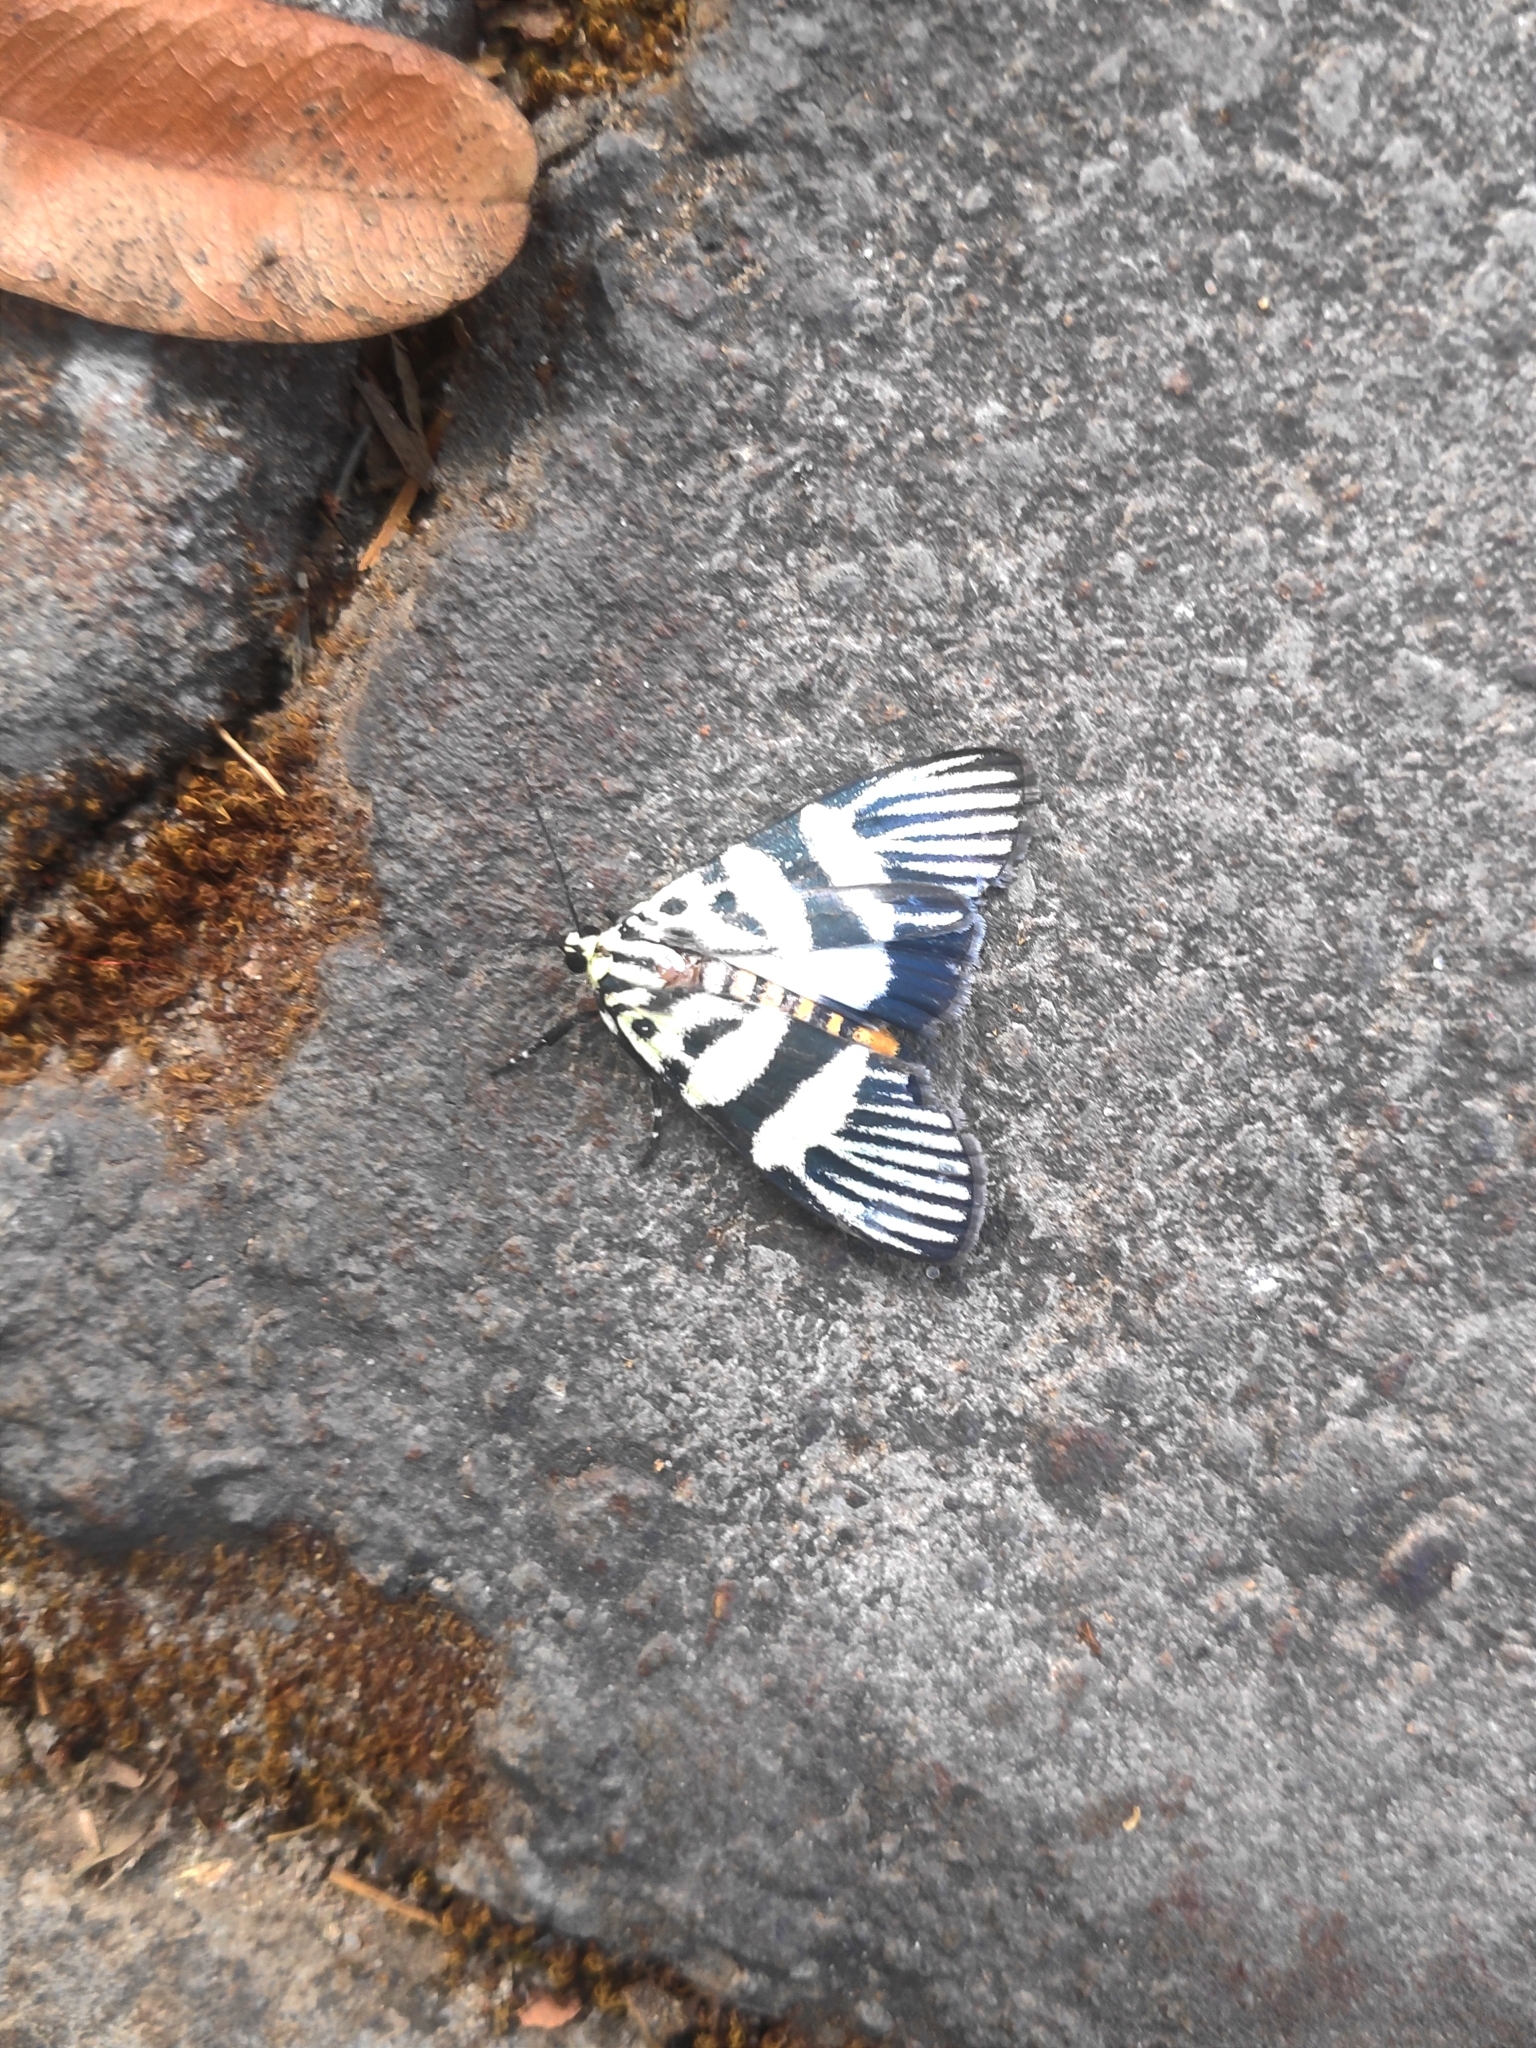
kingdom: Animalia
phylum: Arthropoda
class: Insecta
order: Lepidoptera
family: Crambidae
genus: Heortia
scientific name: Heortia vitessoides
